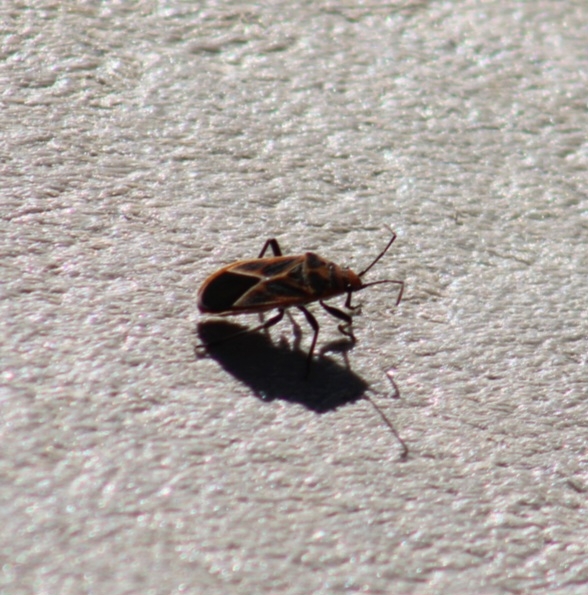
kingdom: Animalia
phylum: Arthropoda
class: Insecta
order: Hemiptera
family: Lygaeidae
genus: Graptostethus
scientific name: Graptostethus servus
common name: Lygaeid bug
